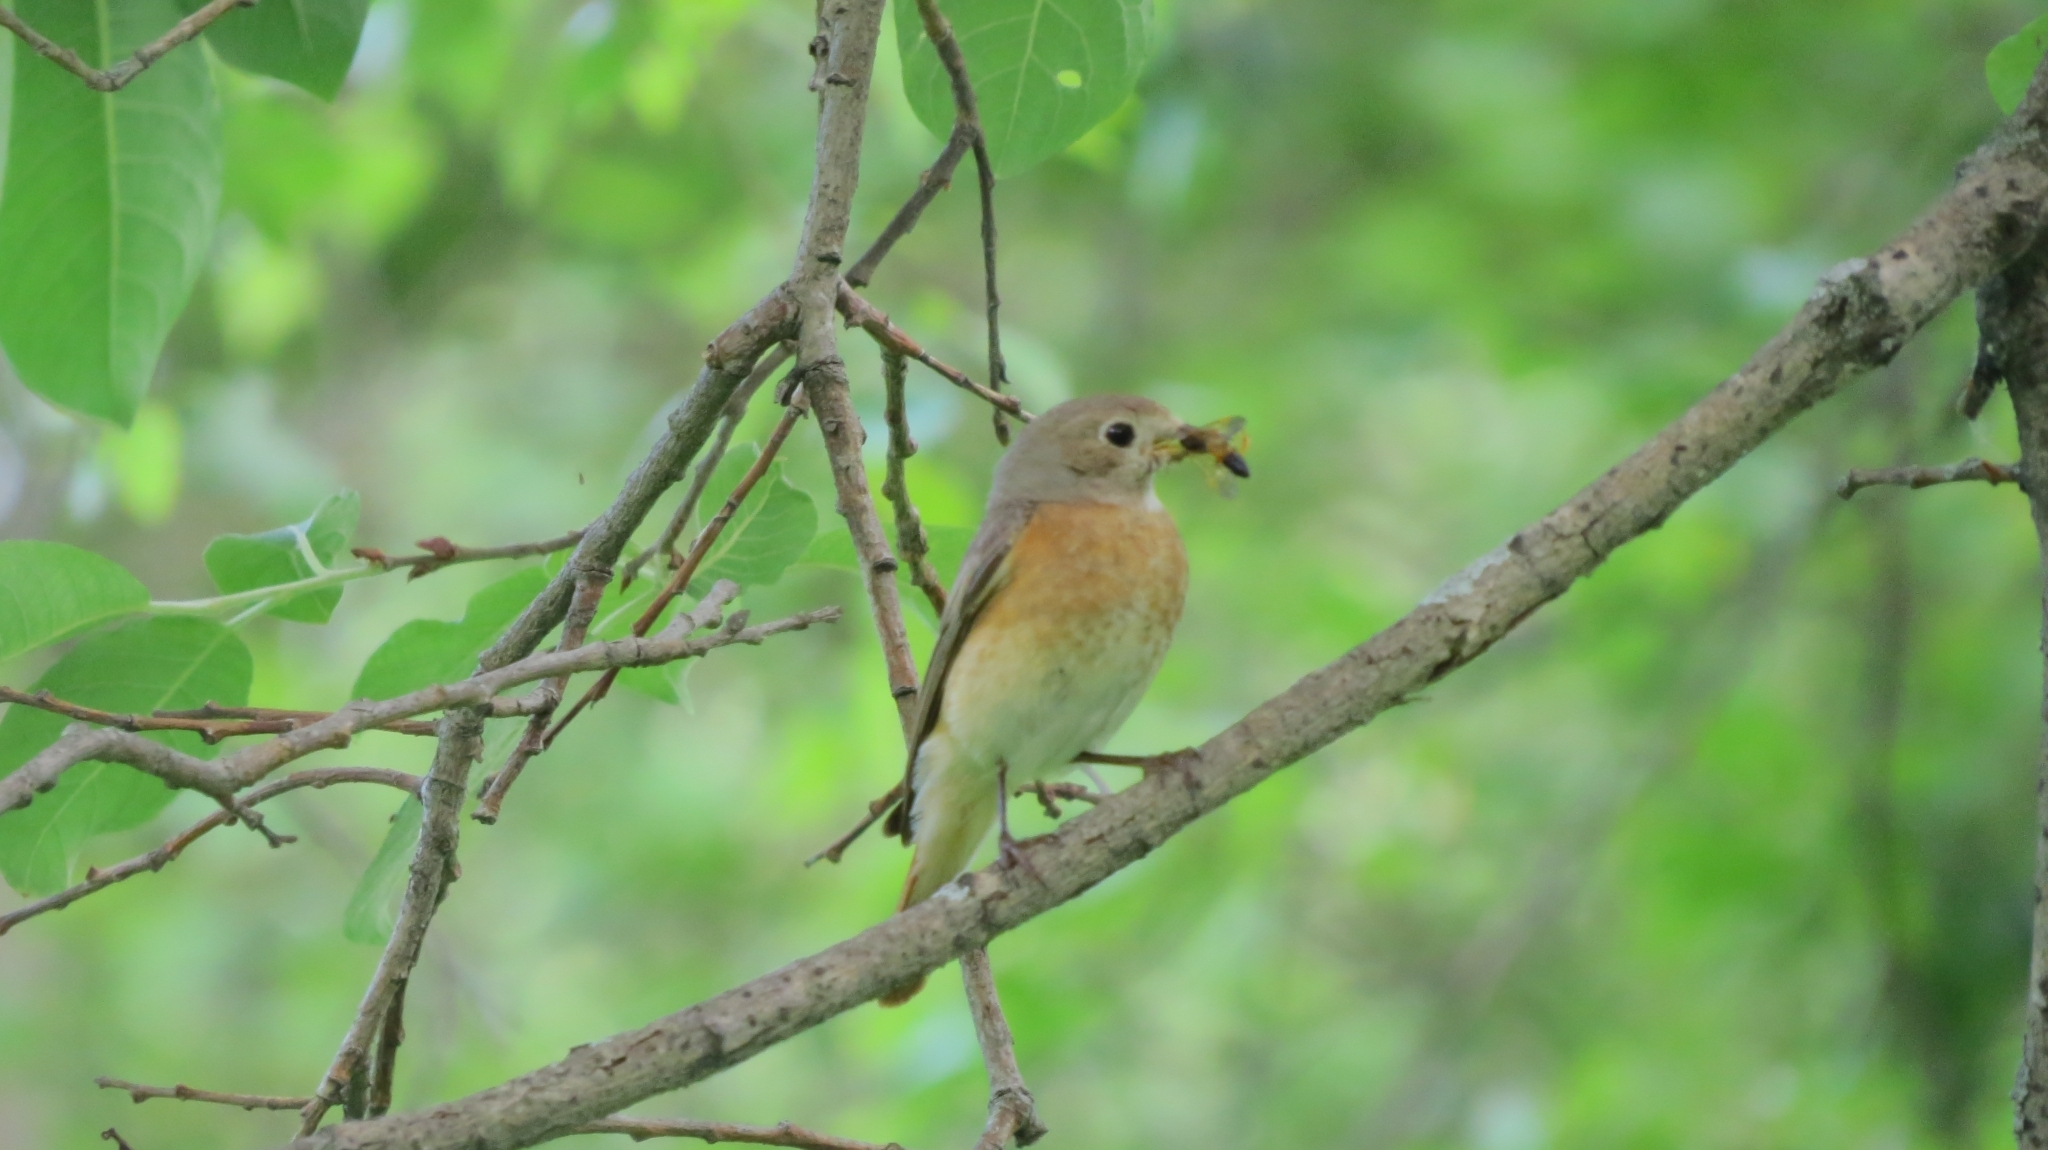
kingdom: Animalia
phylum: Chordata
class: Aves
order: Passeriformes
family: Muscicapidae
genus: Phoenicurus
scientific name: Phoenicurus phoenicurus
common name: Common redstart
